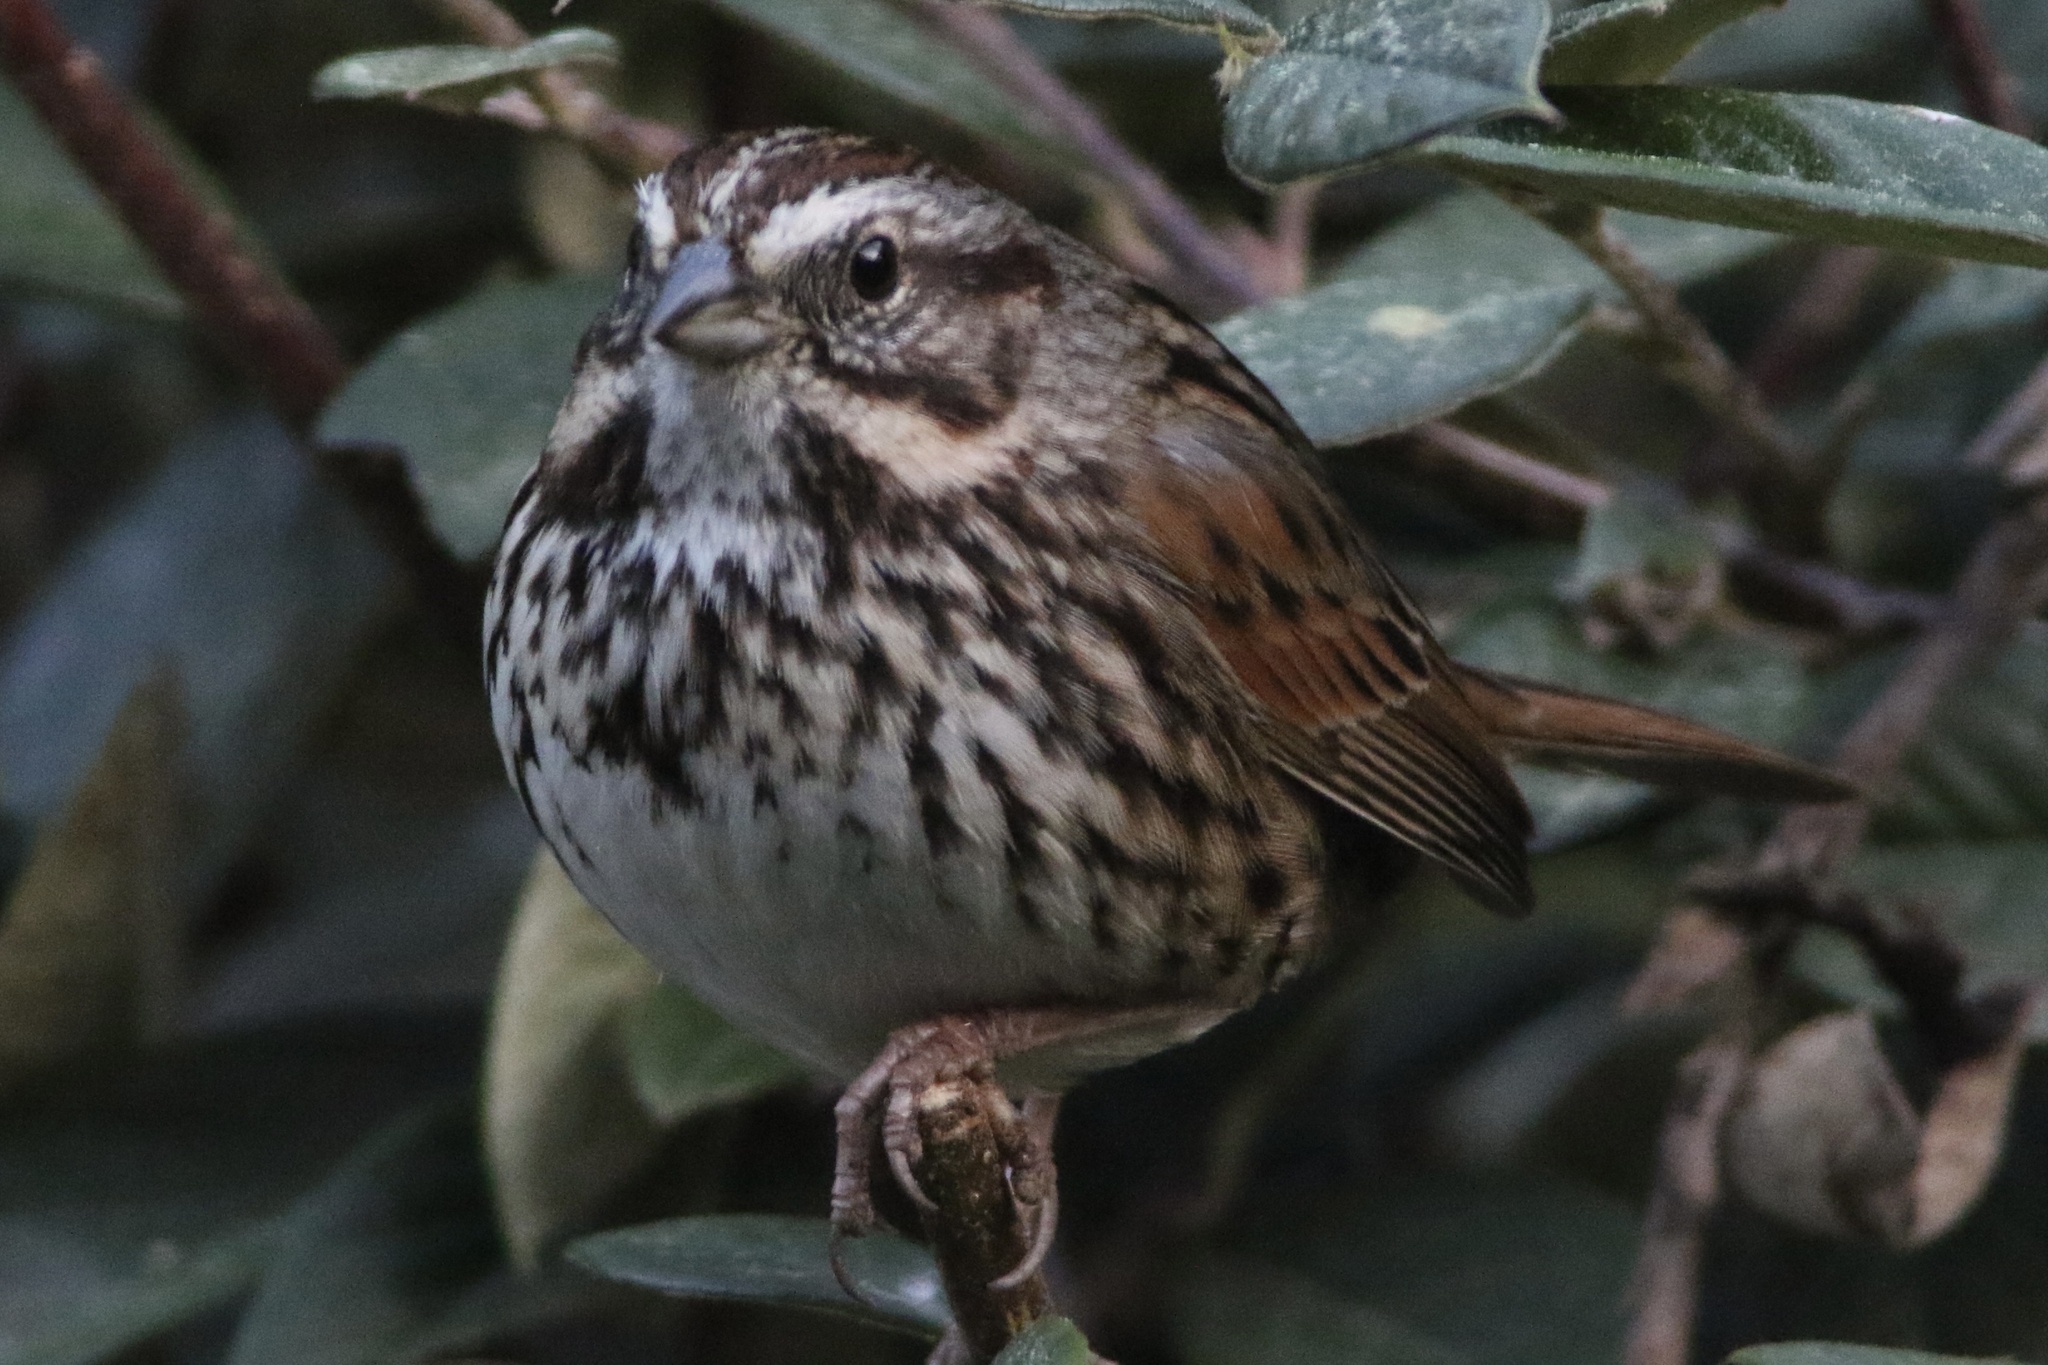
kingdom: Animalia
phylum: Chordata
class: Aves
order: Passeriformes
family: Passerellidae
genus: Melospiza
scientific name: Melospiza melodia
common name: Song sparrow
